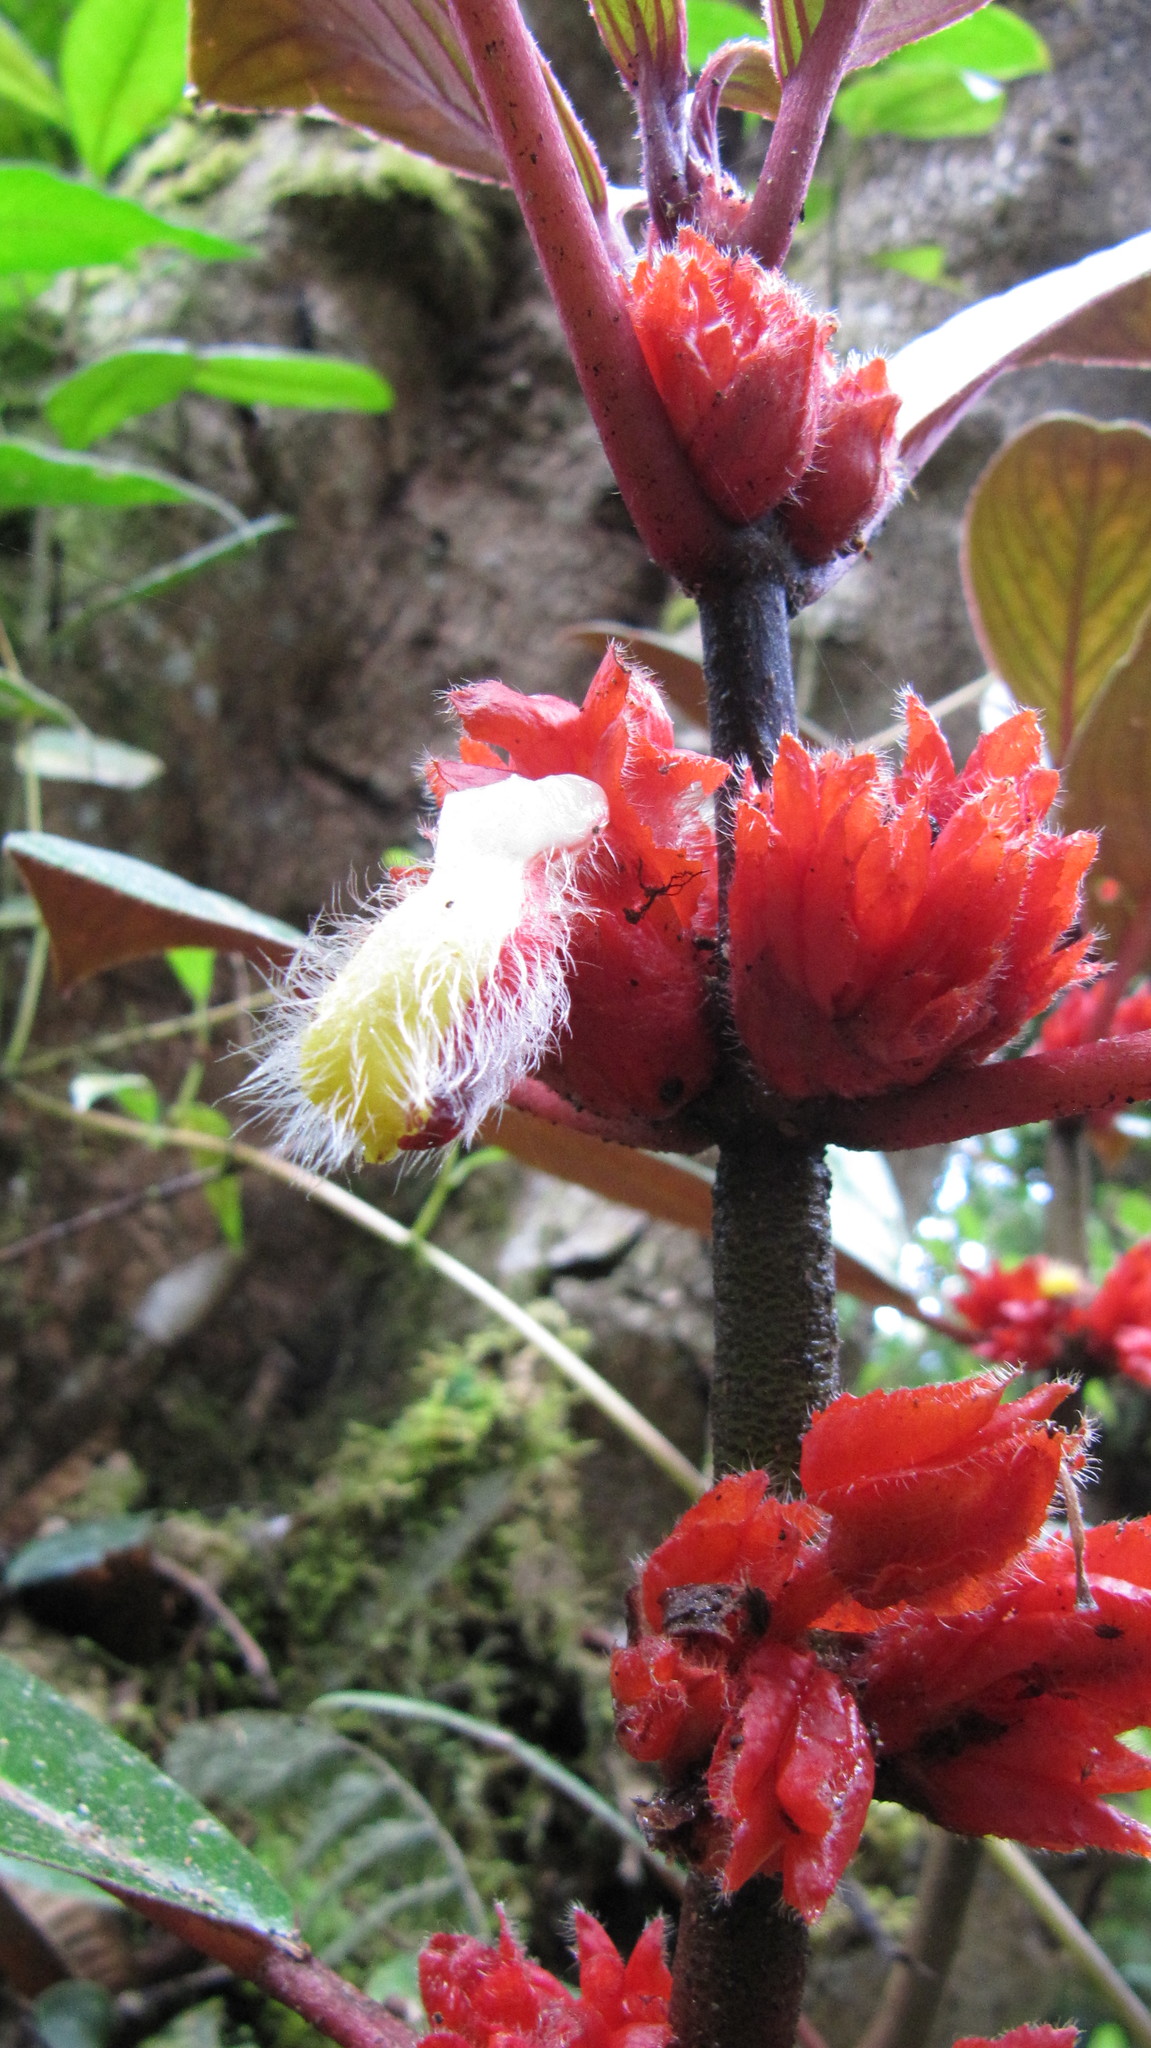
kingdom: Plantae
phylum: Tracheophyta
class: Magnoliopsida
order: Lamiales
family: Gesneriaceae
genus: Glossoloma
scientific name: Glossoloma ichthyoderma
